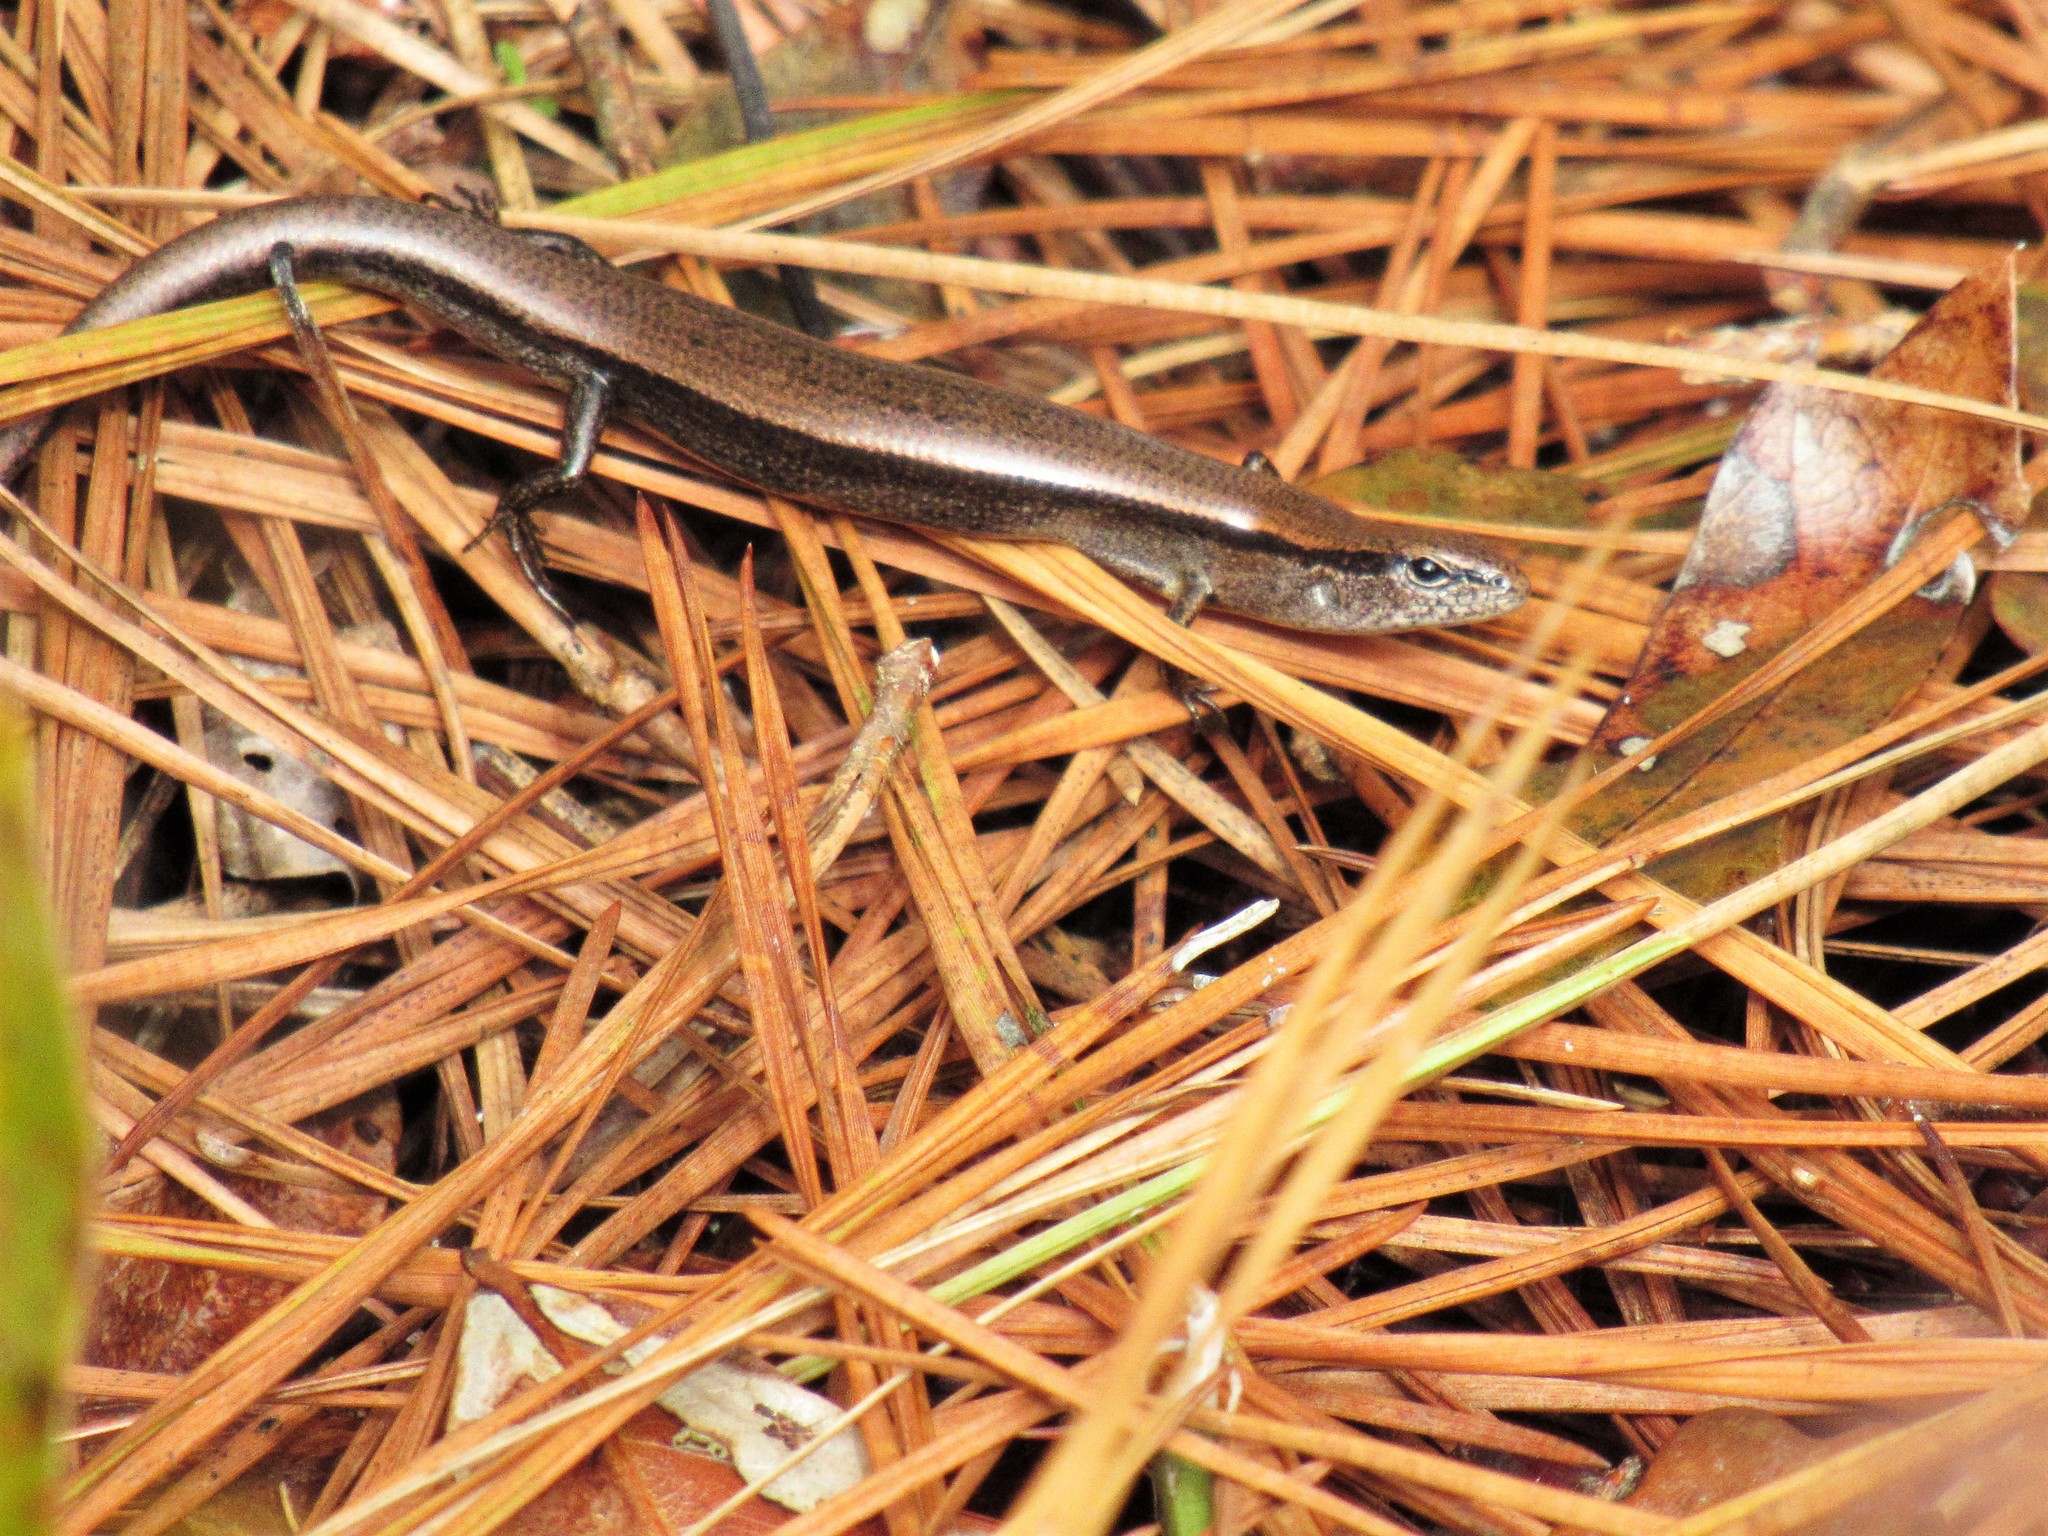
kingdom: Animalia
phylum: Chordata
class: Squamata
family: Scincidae
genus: Scincella
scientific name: Scincella lateralis
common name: Ground skink
